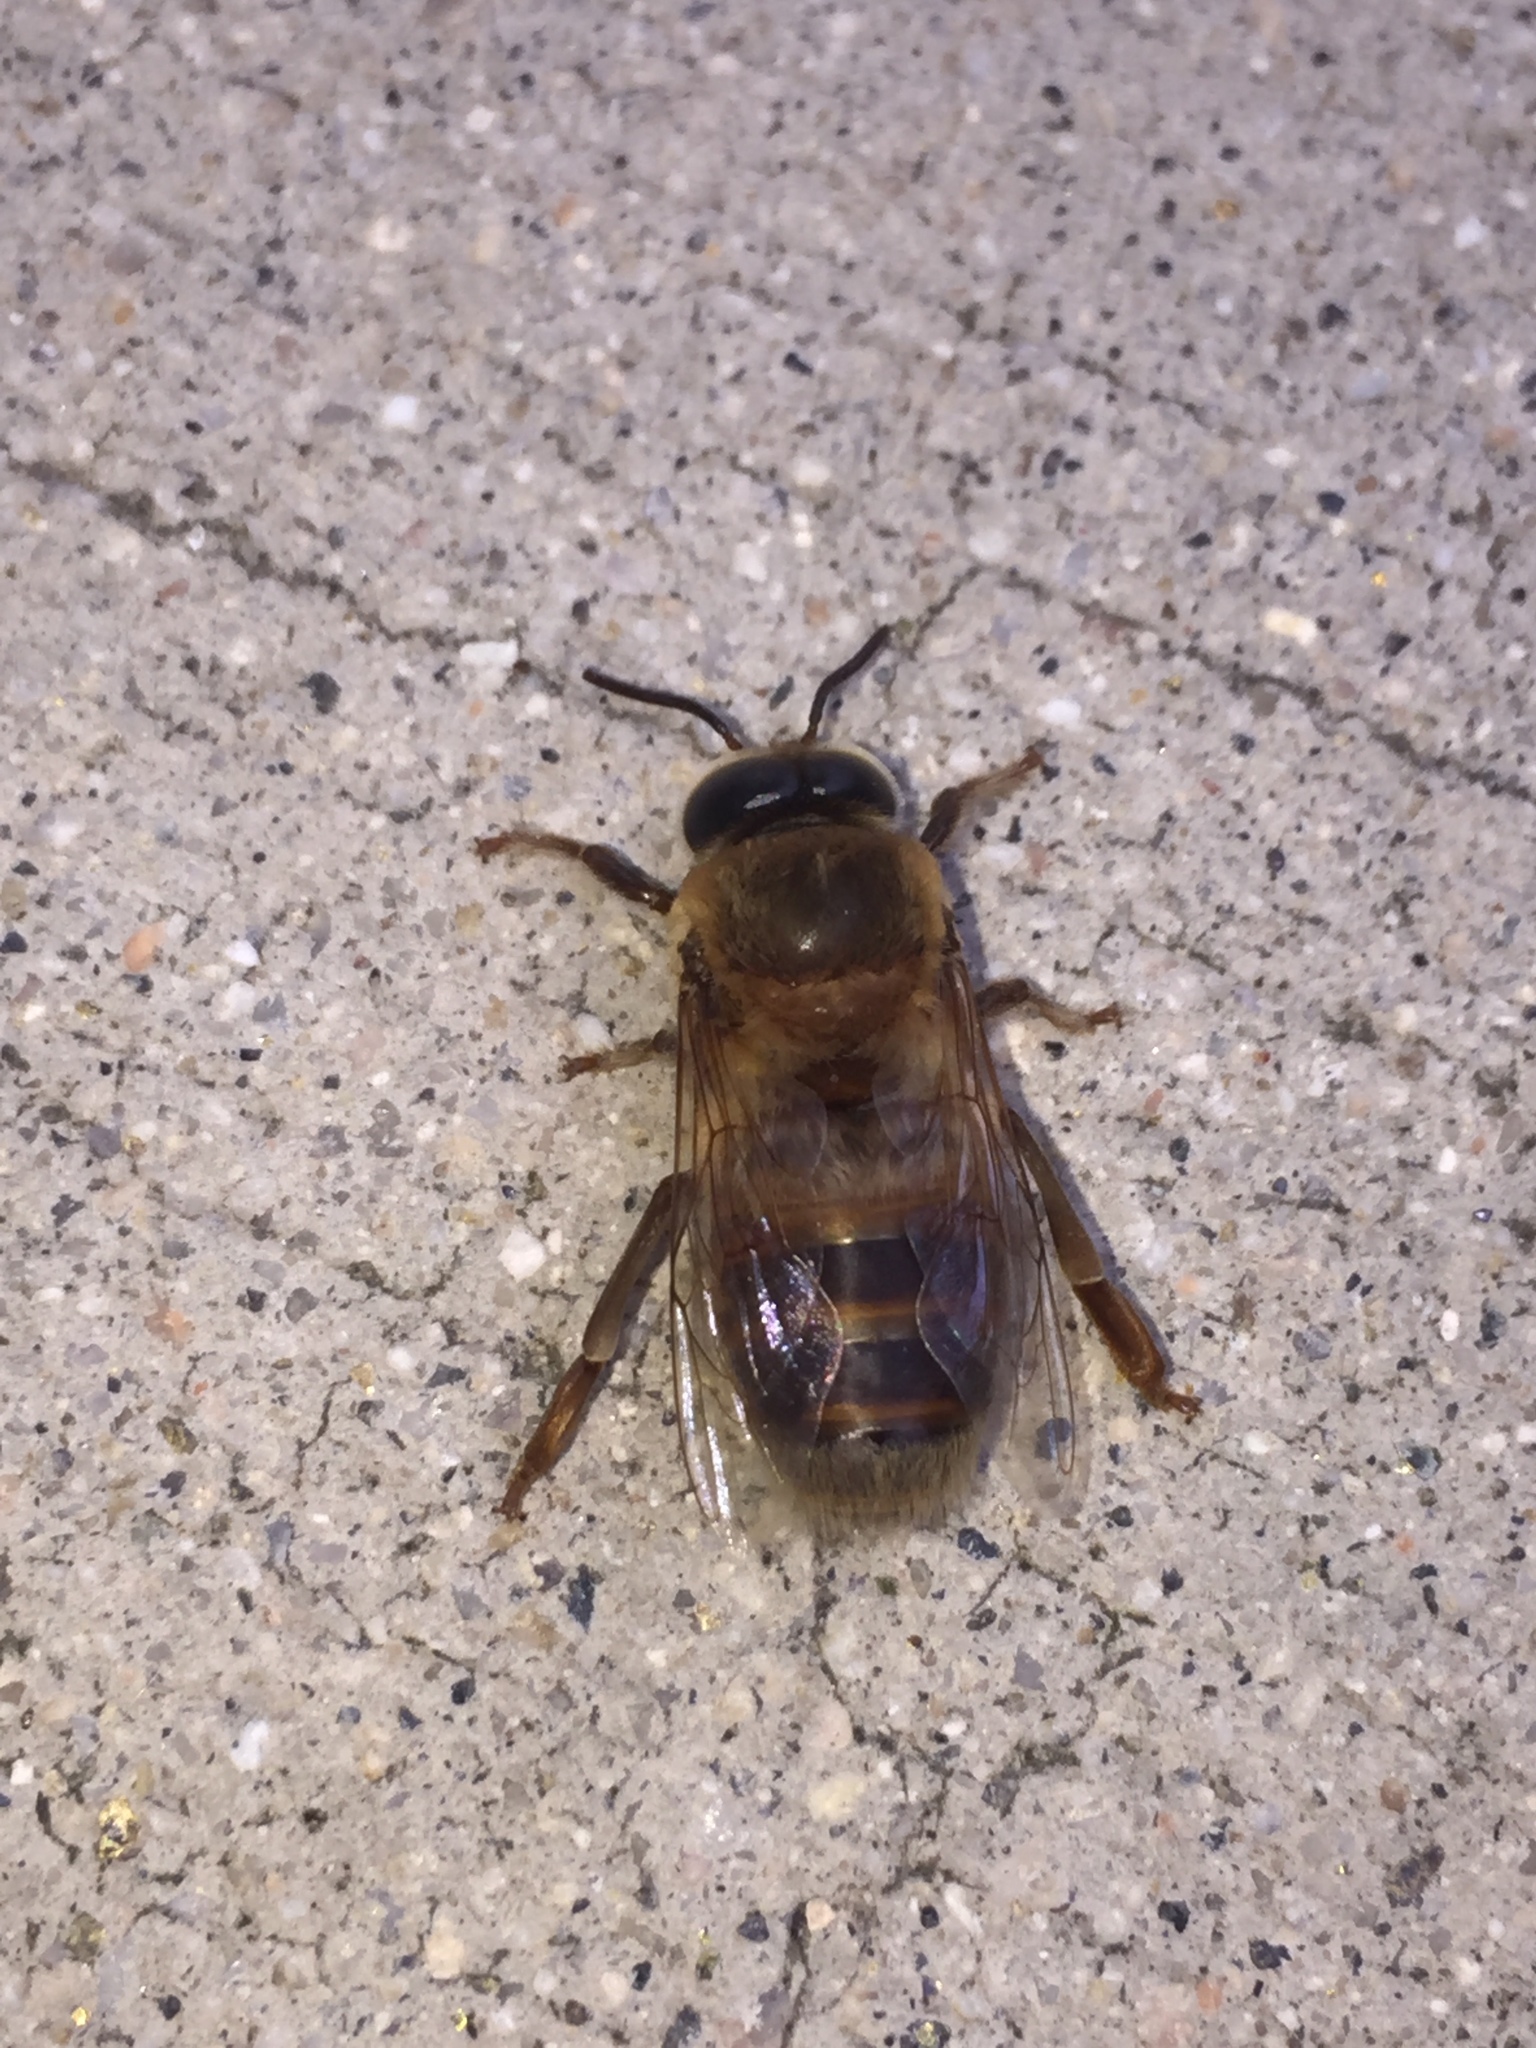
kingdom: Animalia
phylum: Arthropoda
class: Insecta
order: Hymenoptera
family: Apidae
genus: Apis
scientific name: Apis mellifera
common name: Honey bee
